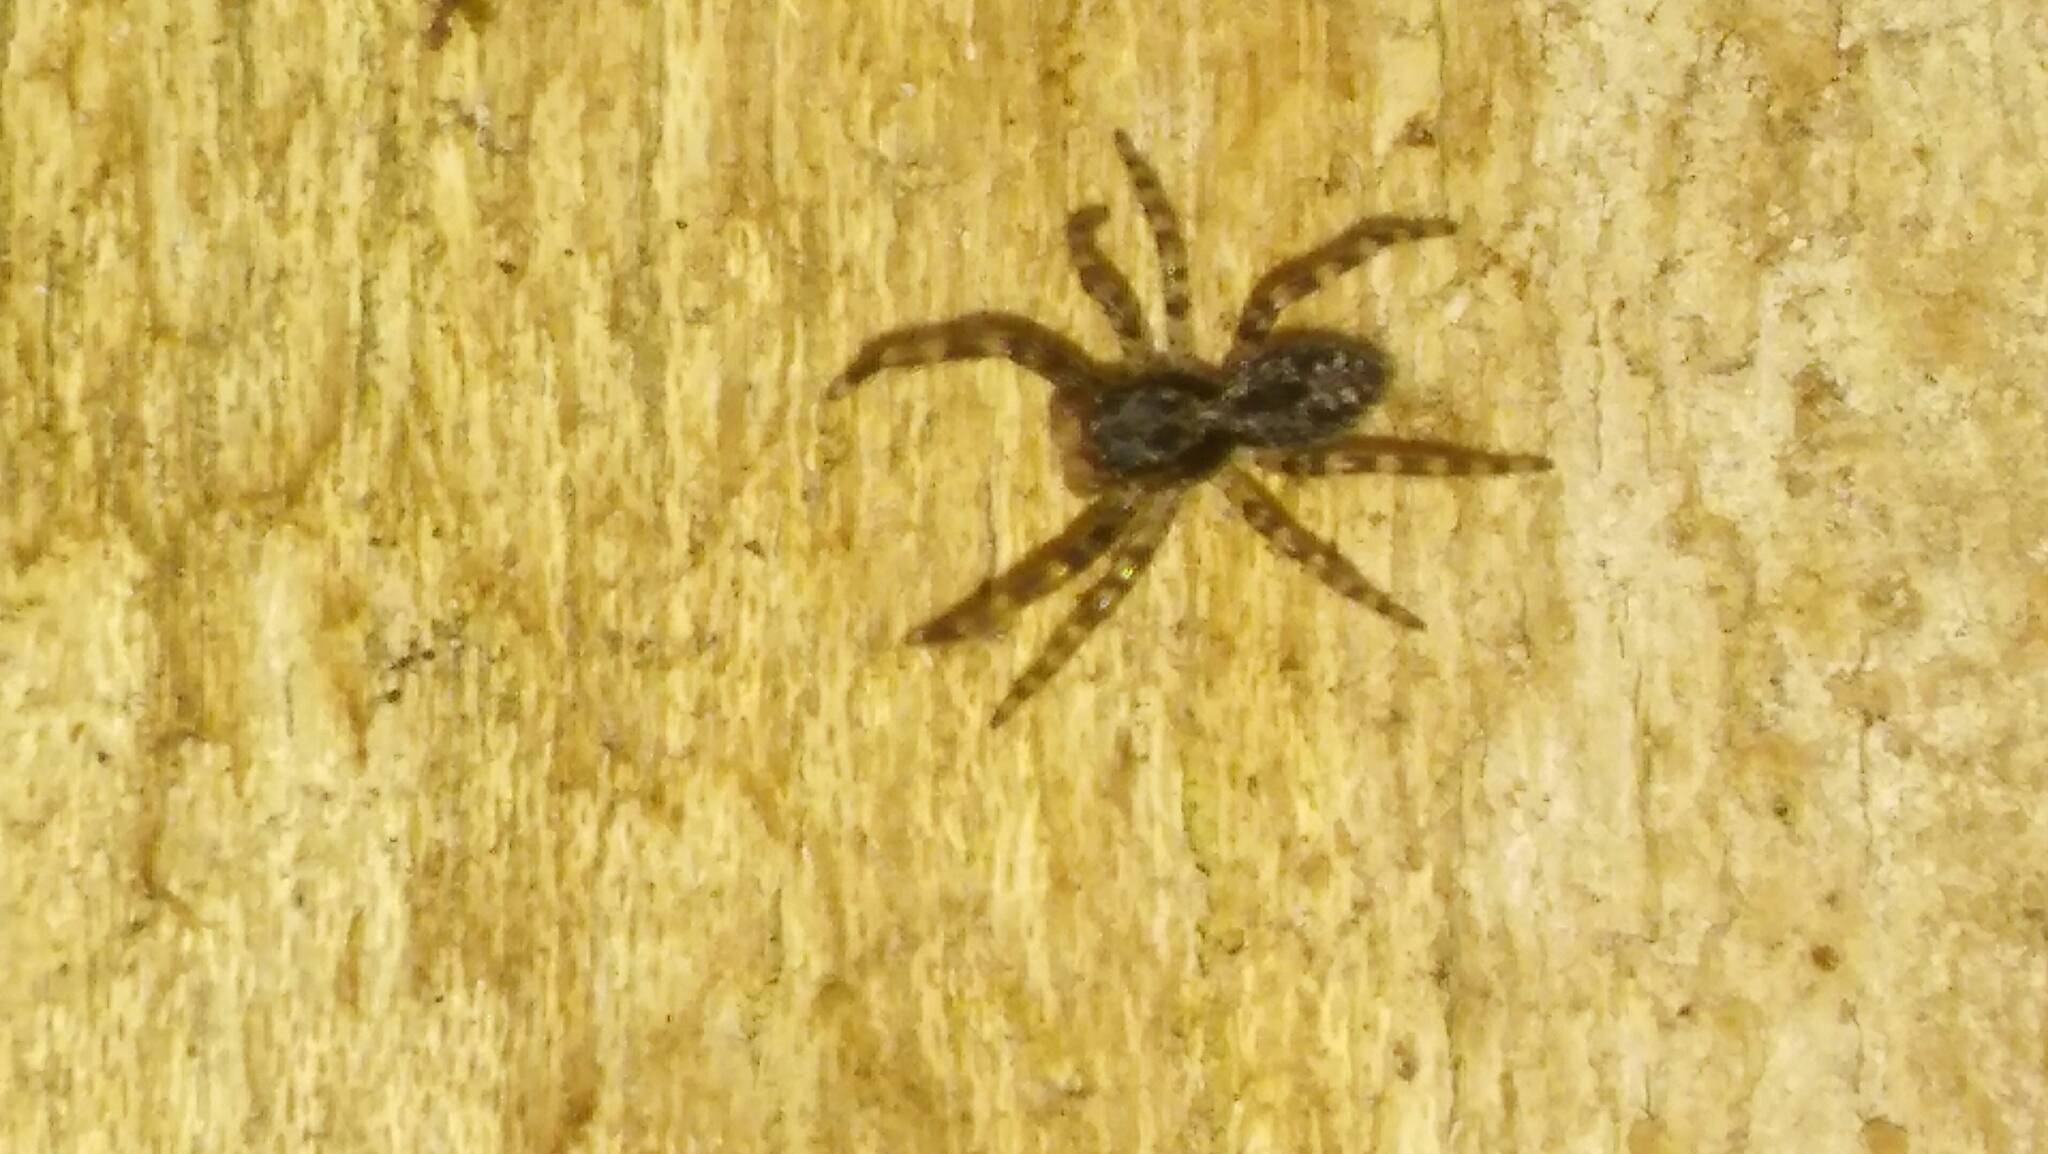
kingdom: Animalia
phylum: Arthropoda
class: Arachnida
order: Araneae
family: Salticidae
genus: Titanattus
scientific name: Titanattus andinus
